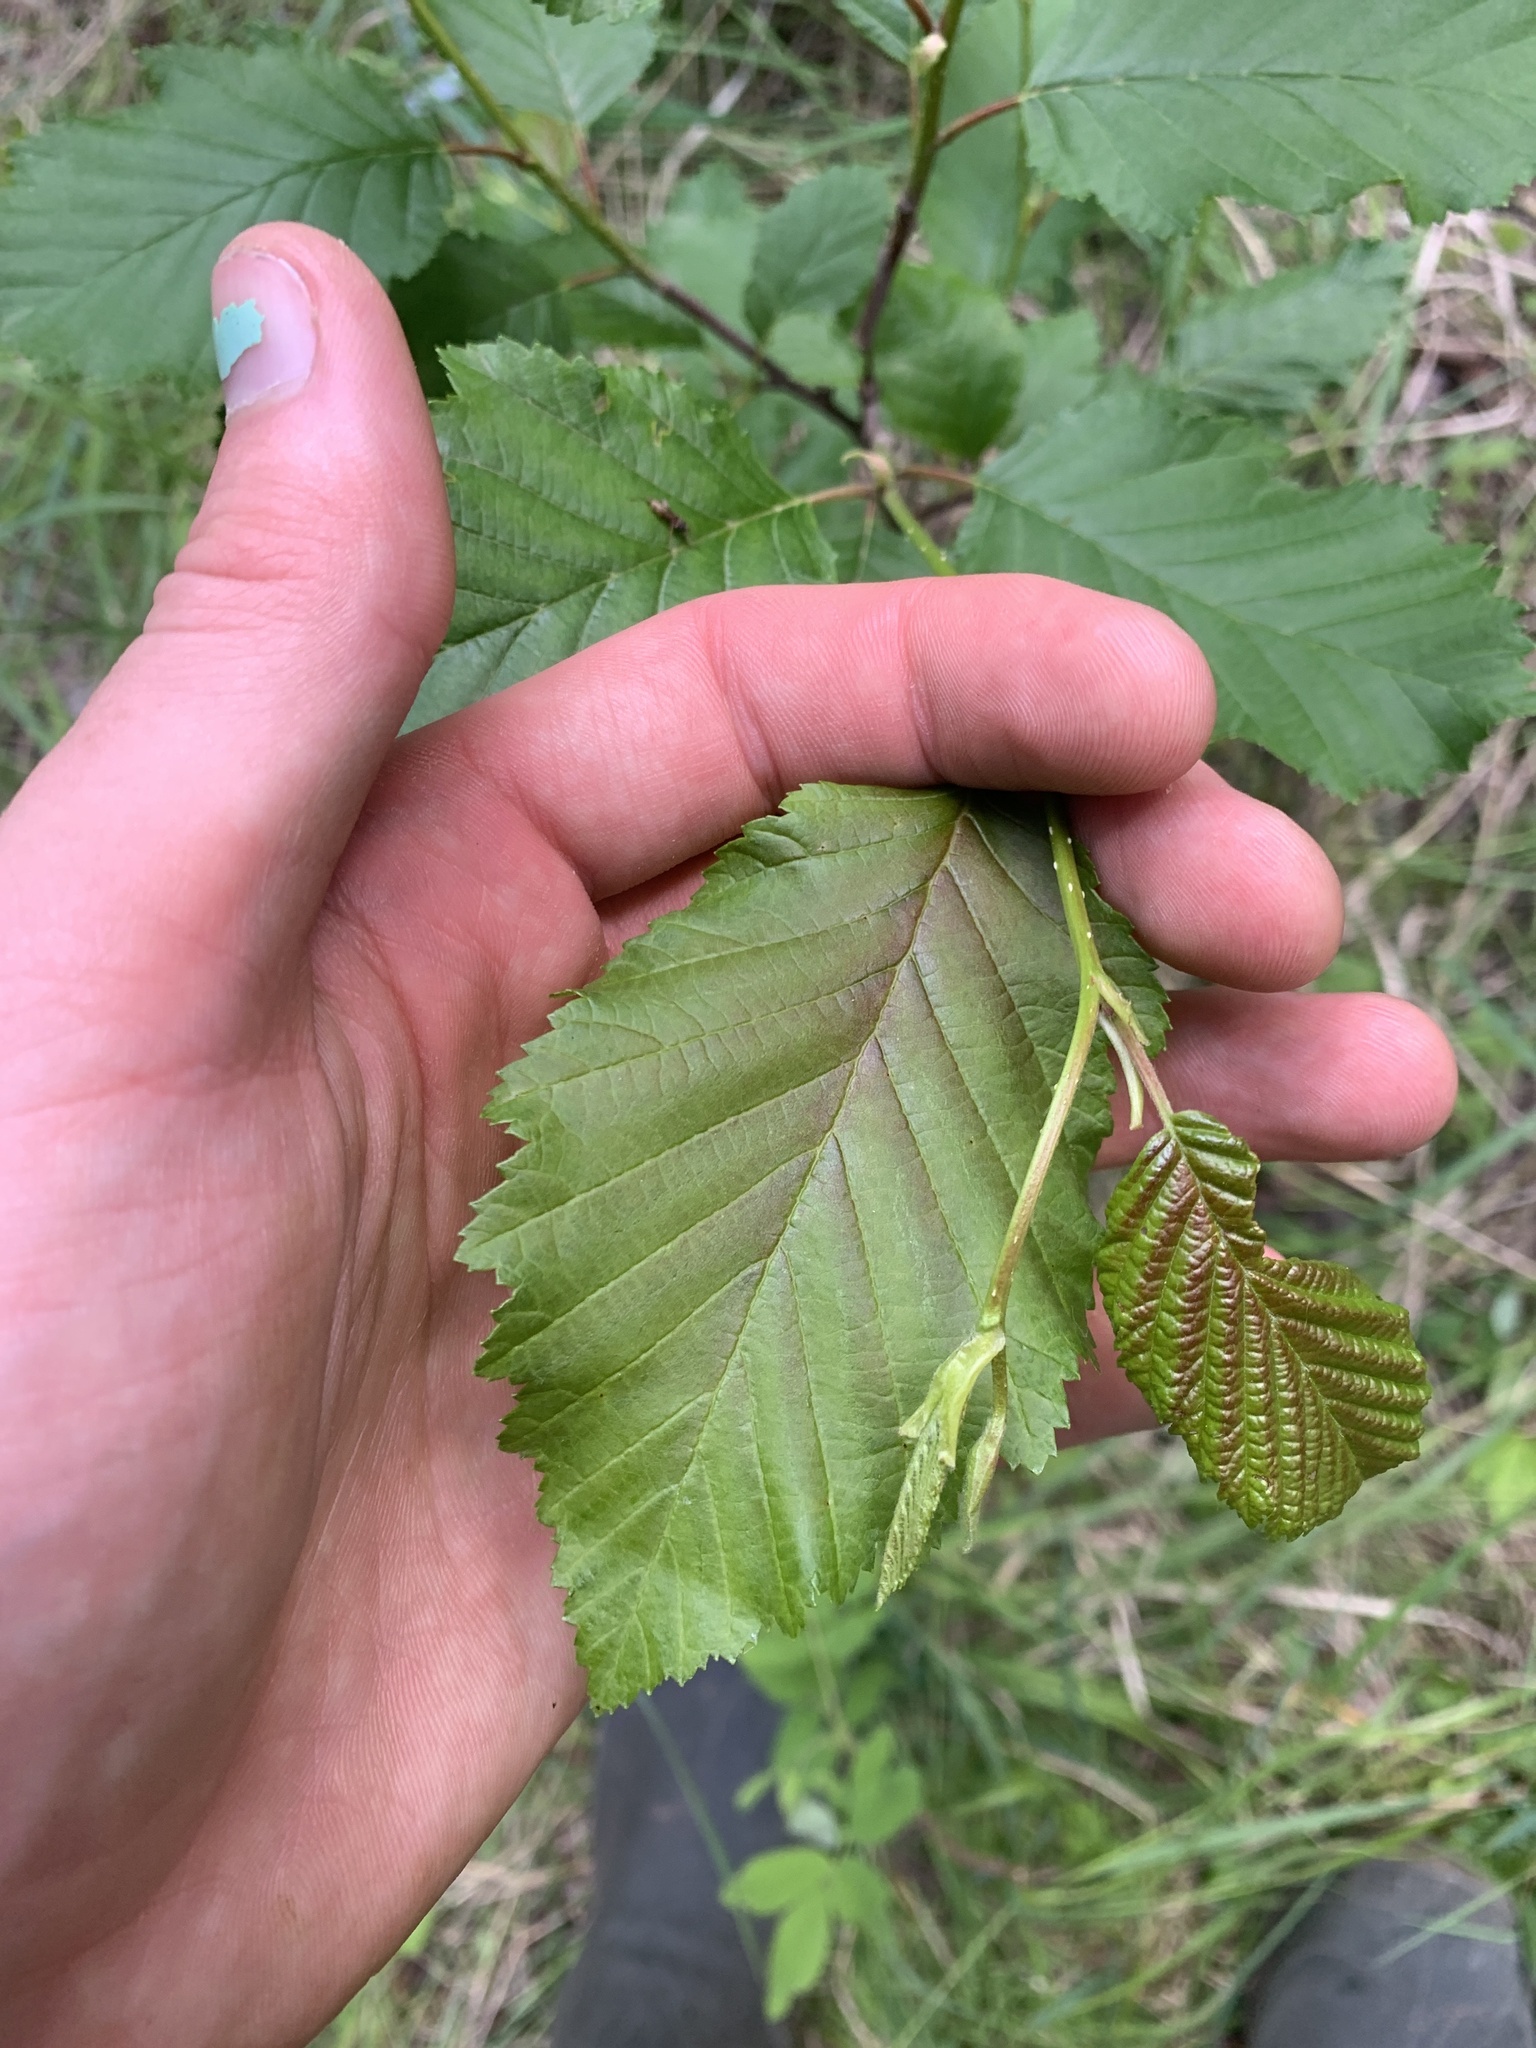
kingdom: Plantae
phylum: Tracheophyta
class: Magnoliopsida
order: Fagales
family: Betulaceae
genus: Alnus
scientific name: Alnus incana
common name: Grey alder
